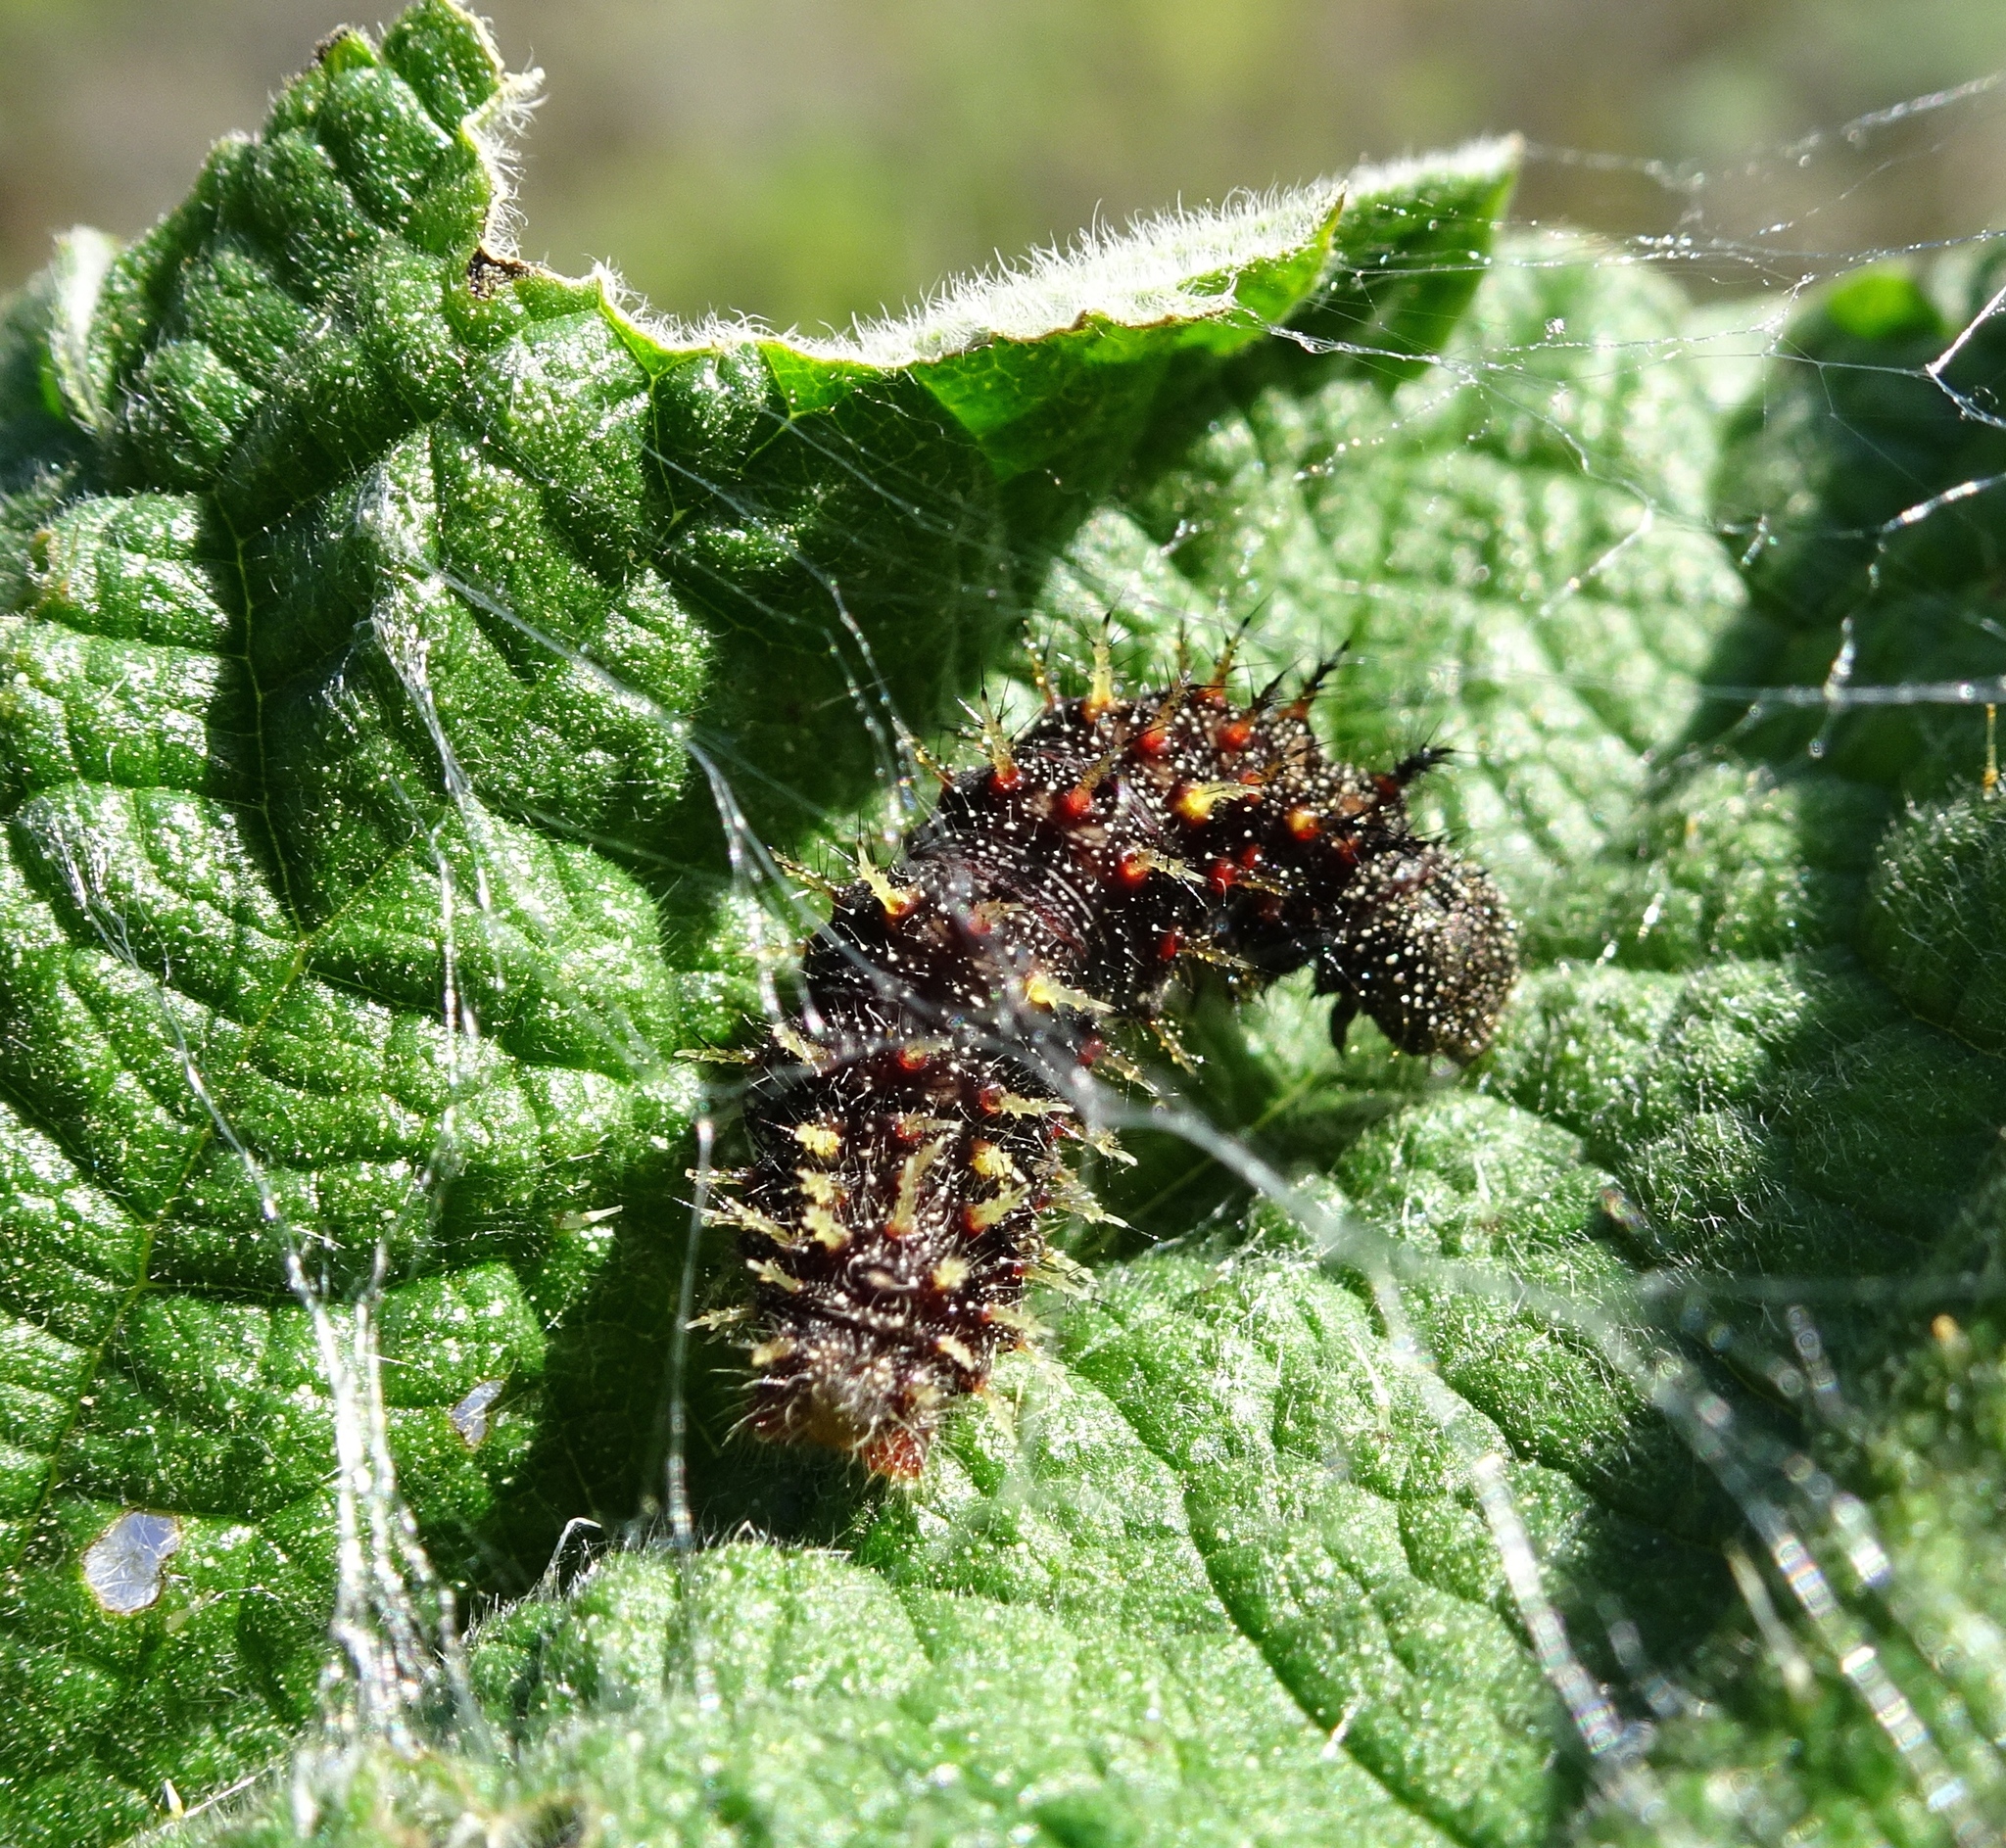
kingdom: Animalia
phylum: Arthropoda
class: Insecta
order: Lepidoptera
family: Nymphalidae
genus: Vanessa
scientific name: Vanessa atalanta
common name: Red admiral
